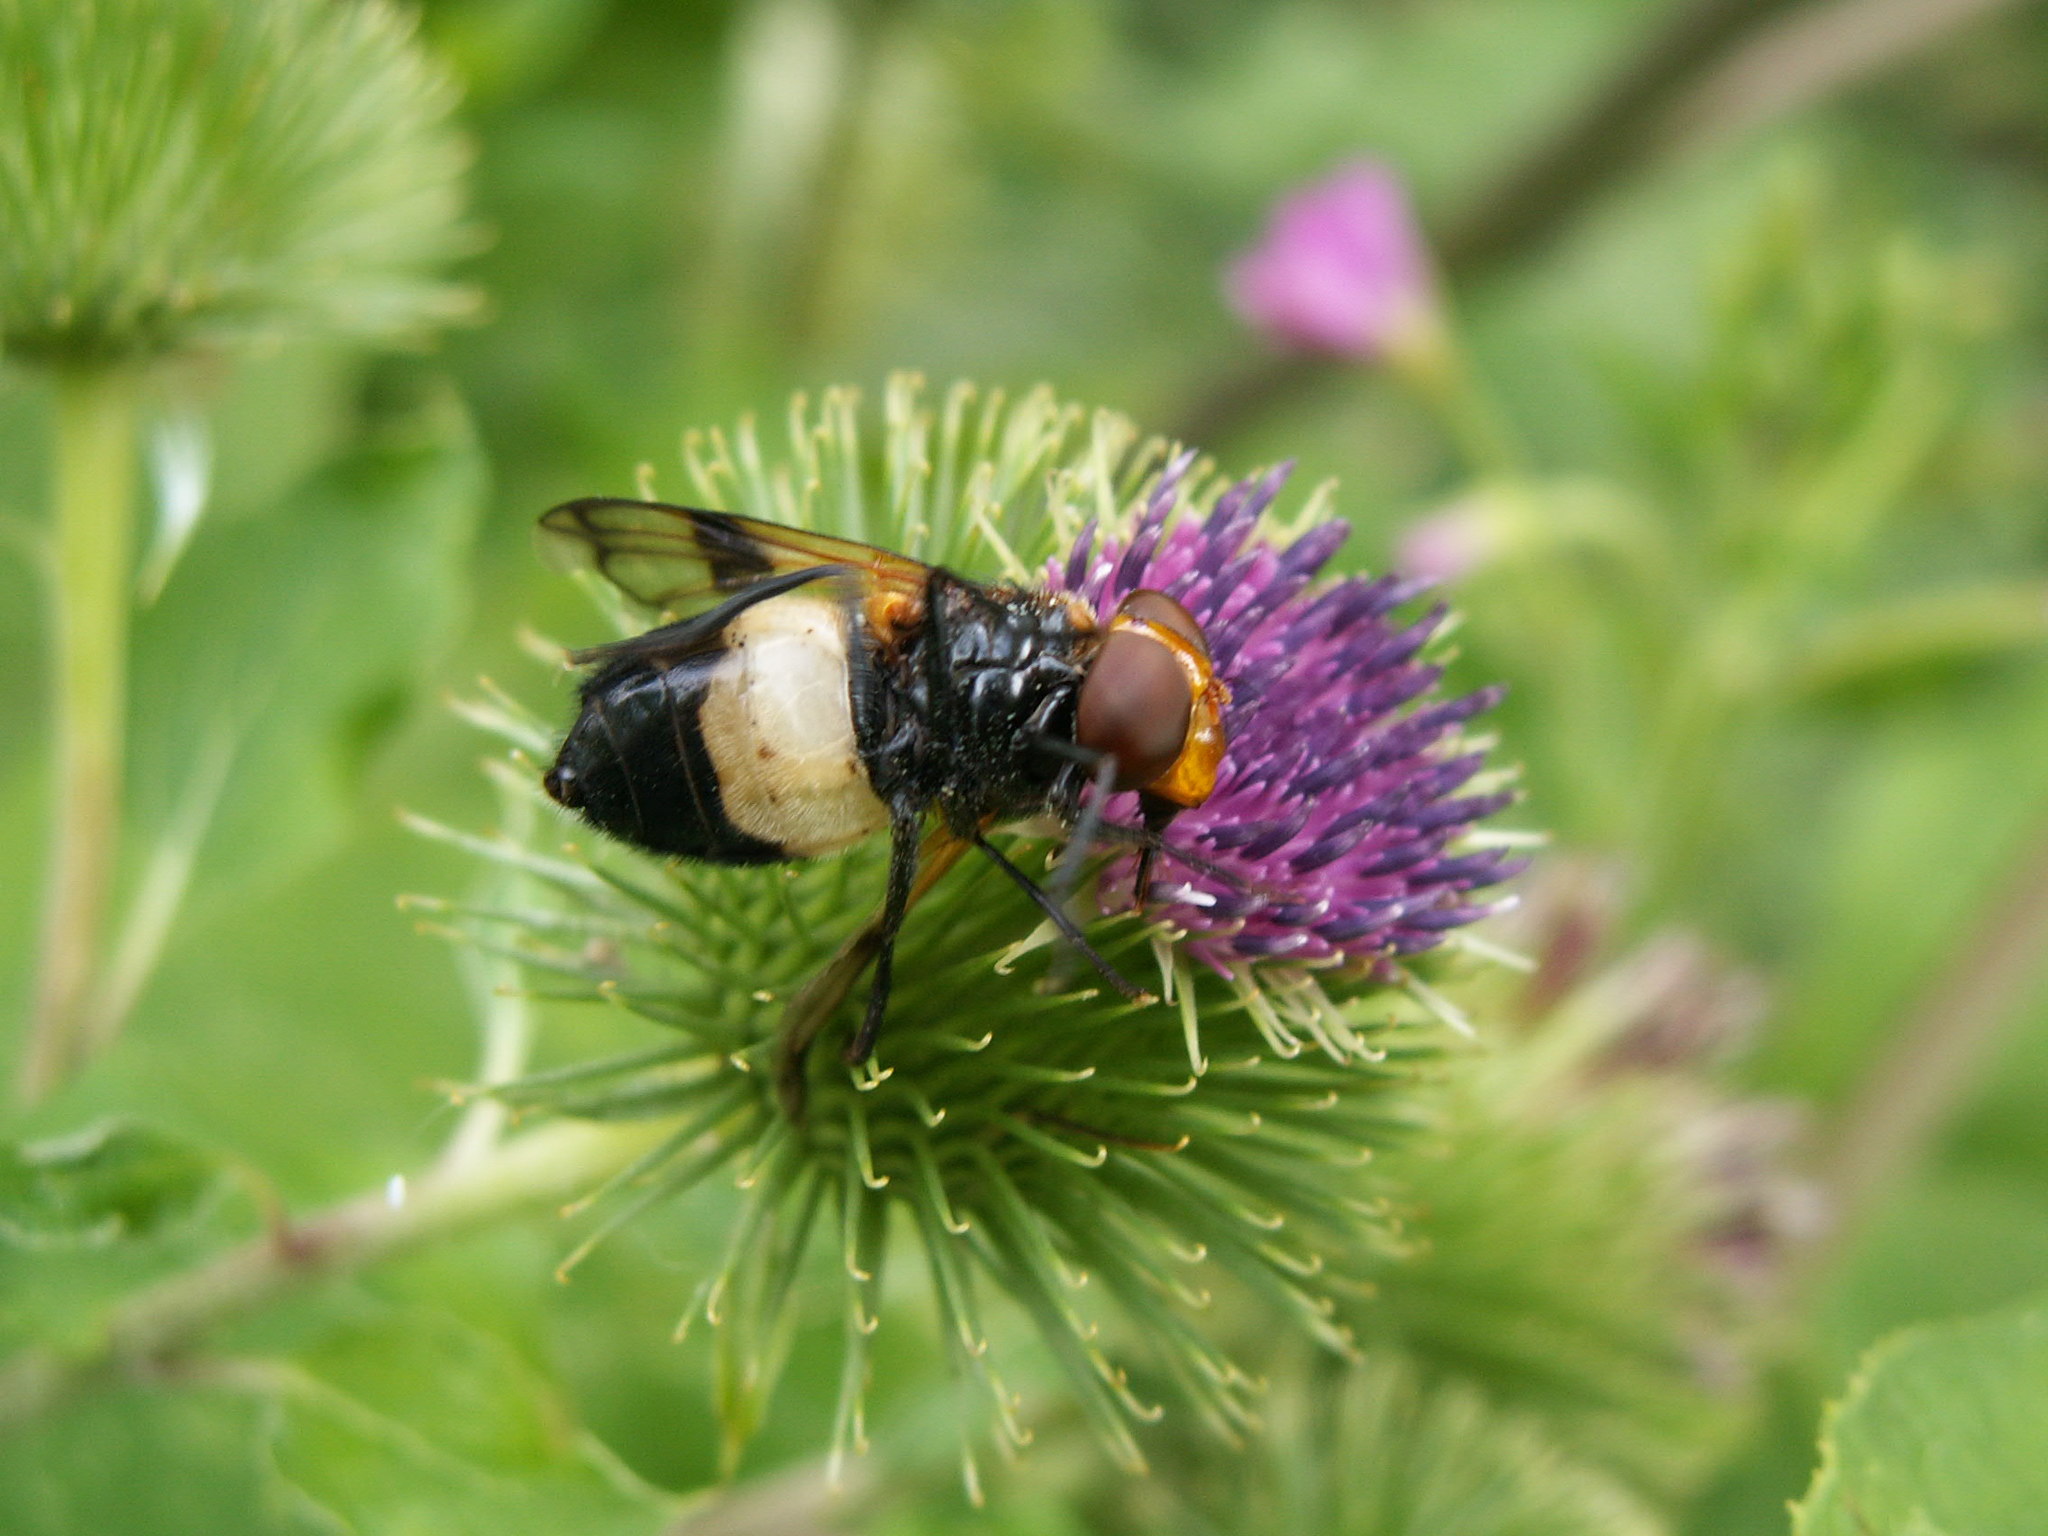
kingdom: Animalia
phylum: Arthropoda
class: Insecta
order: Diptera
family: Syrphidae
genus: Volucella
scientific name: Volucella pellucens
